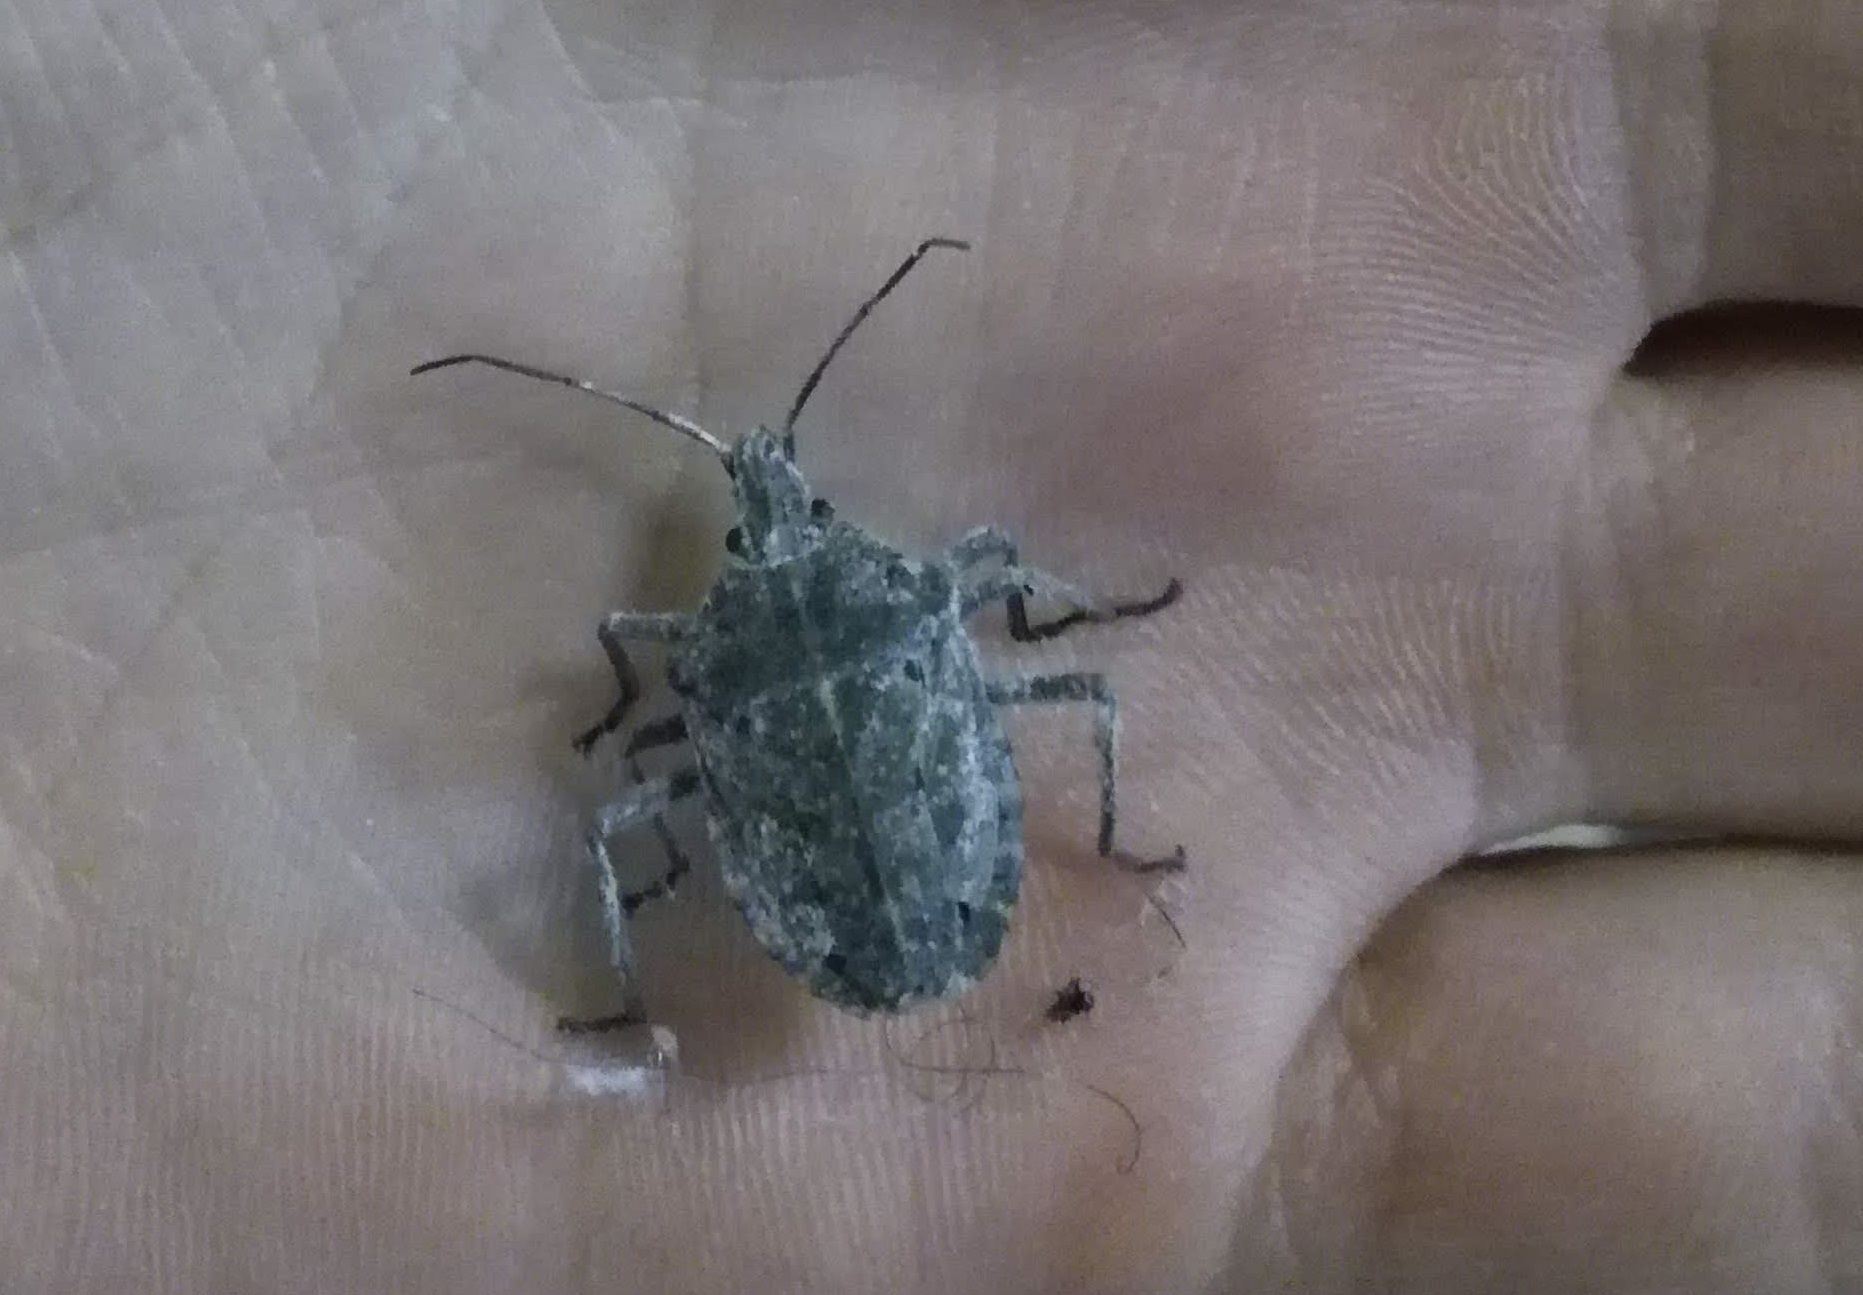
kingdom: Animalia
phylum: Arthropoda
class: Insecta
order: Hemiptera
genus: Peltasticus
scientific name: Peltasticus
